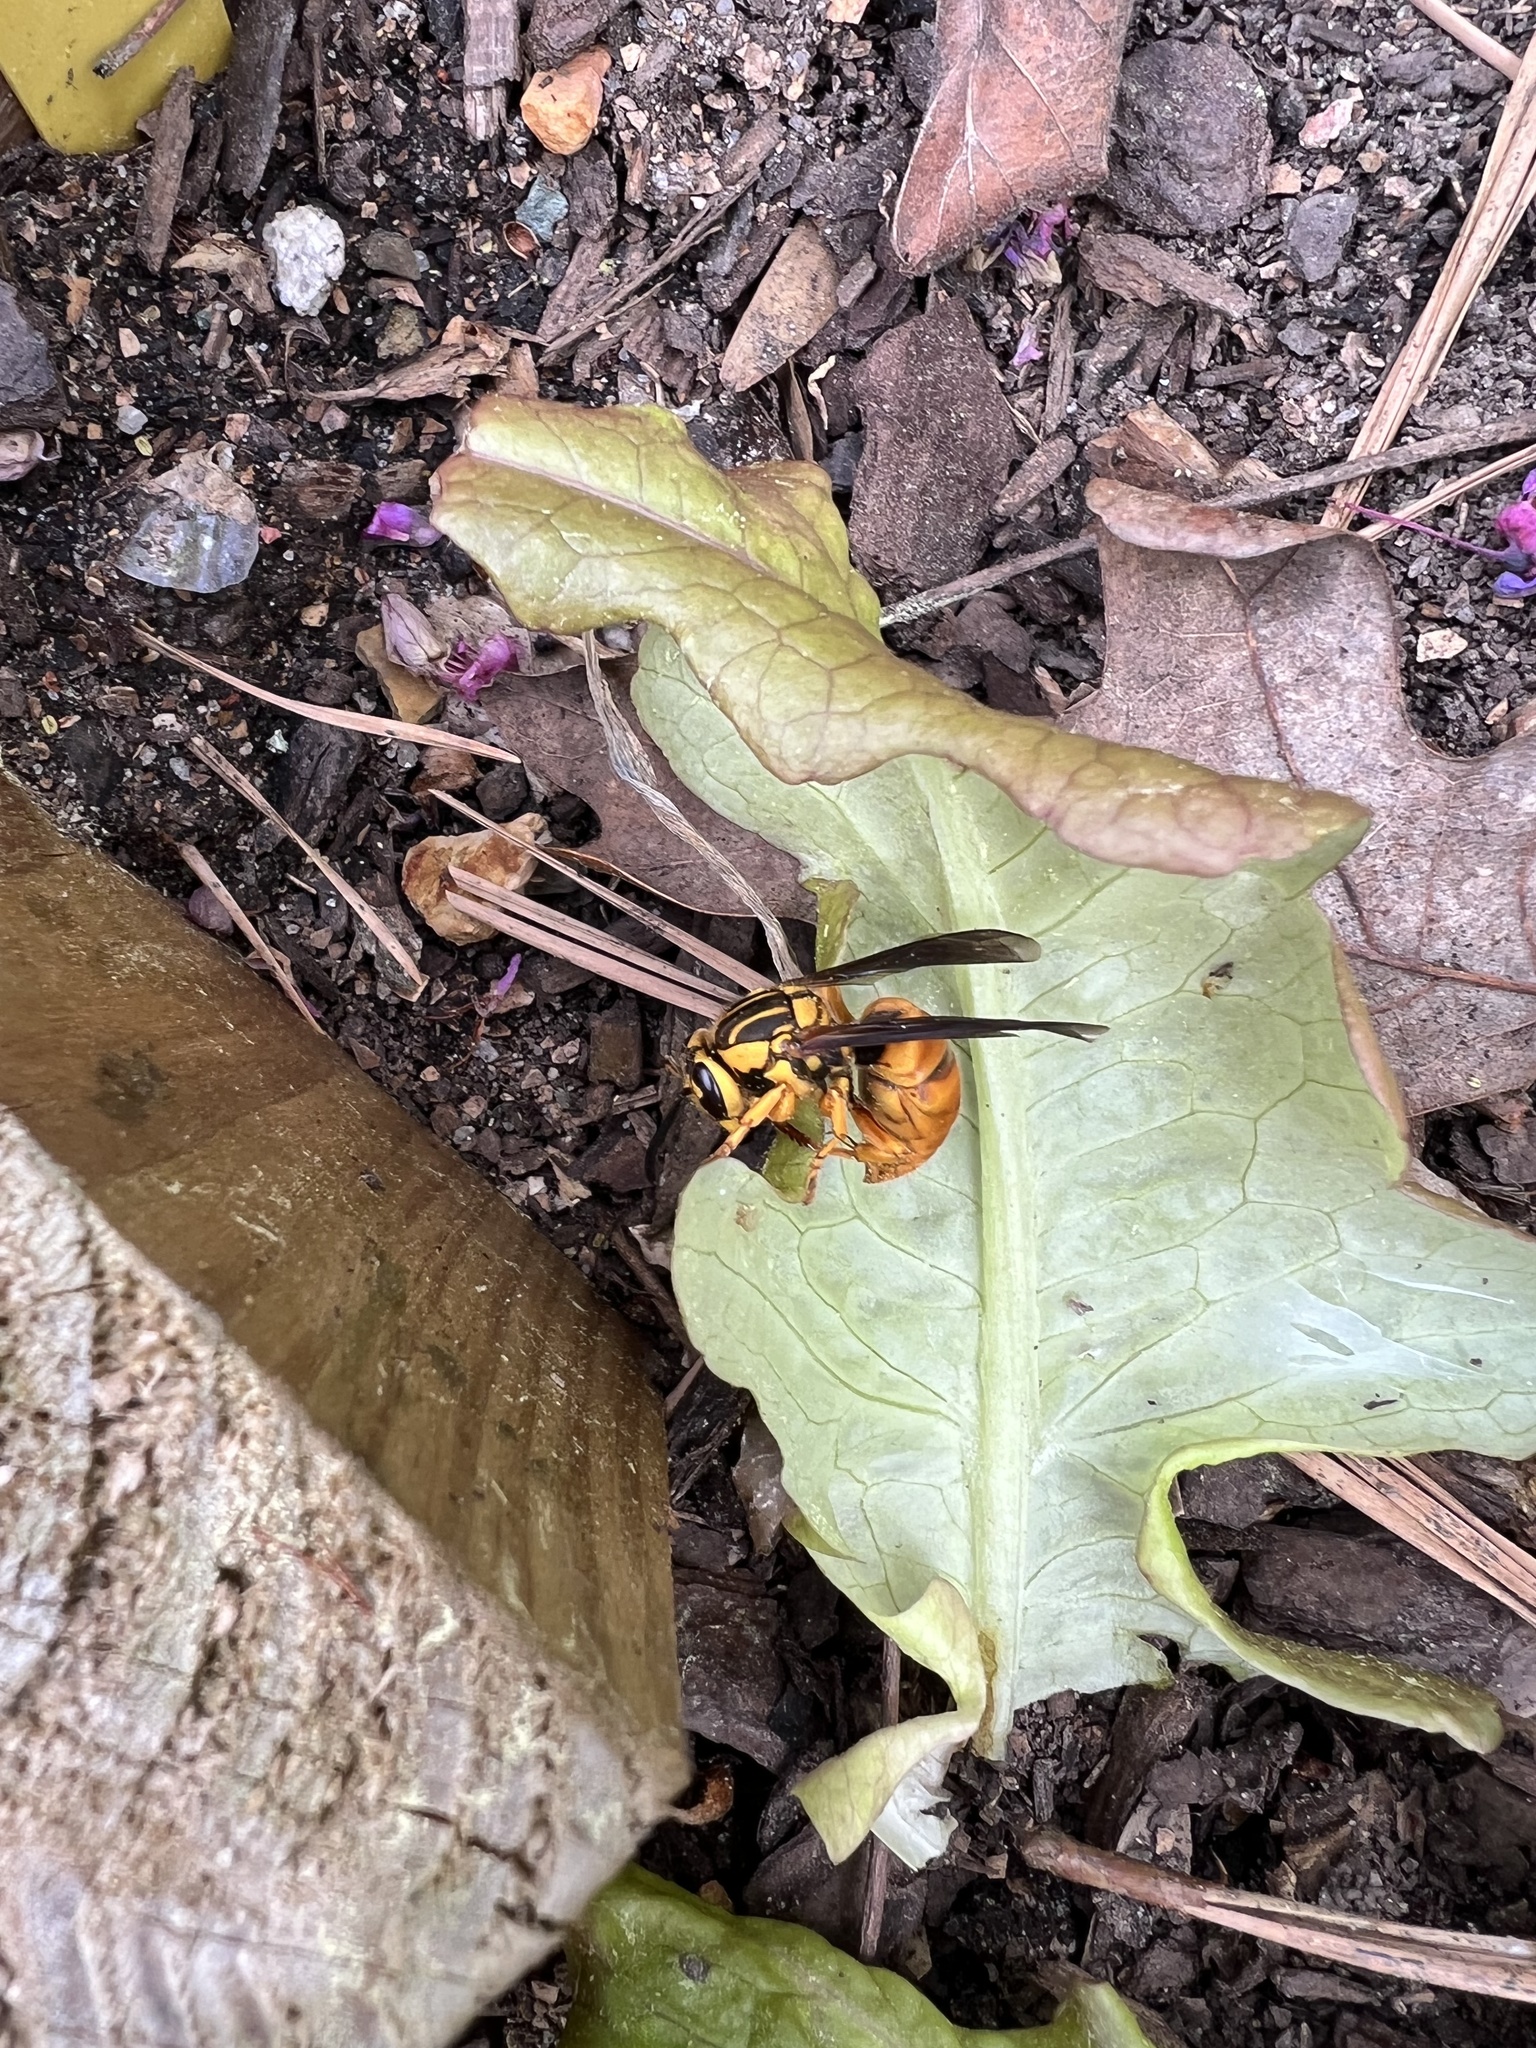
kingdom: Animalia
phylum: Arthropoda
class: Insecta
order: Hymenoptera
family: Vespidae
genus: Vespula
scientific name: Vespula squamosa
